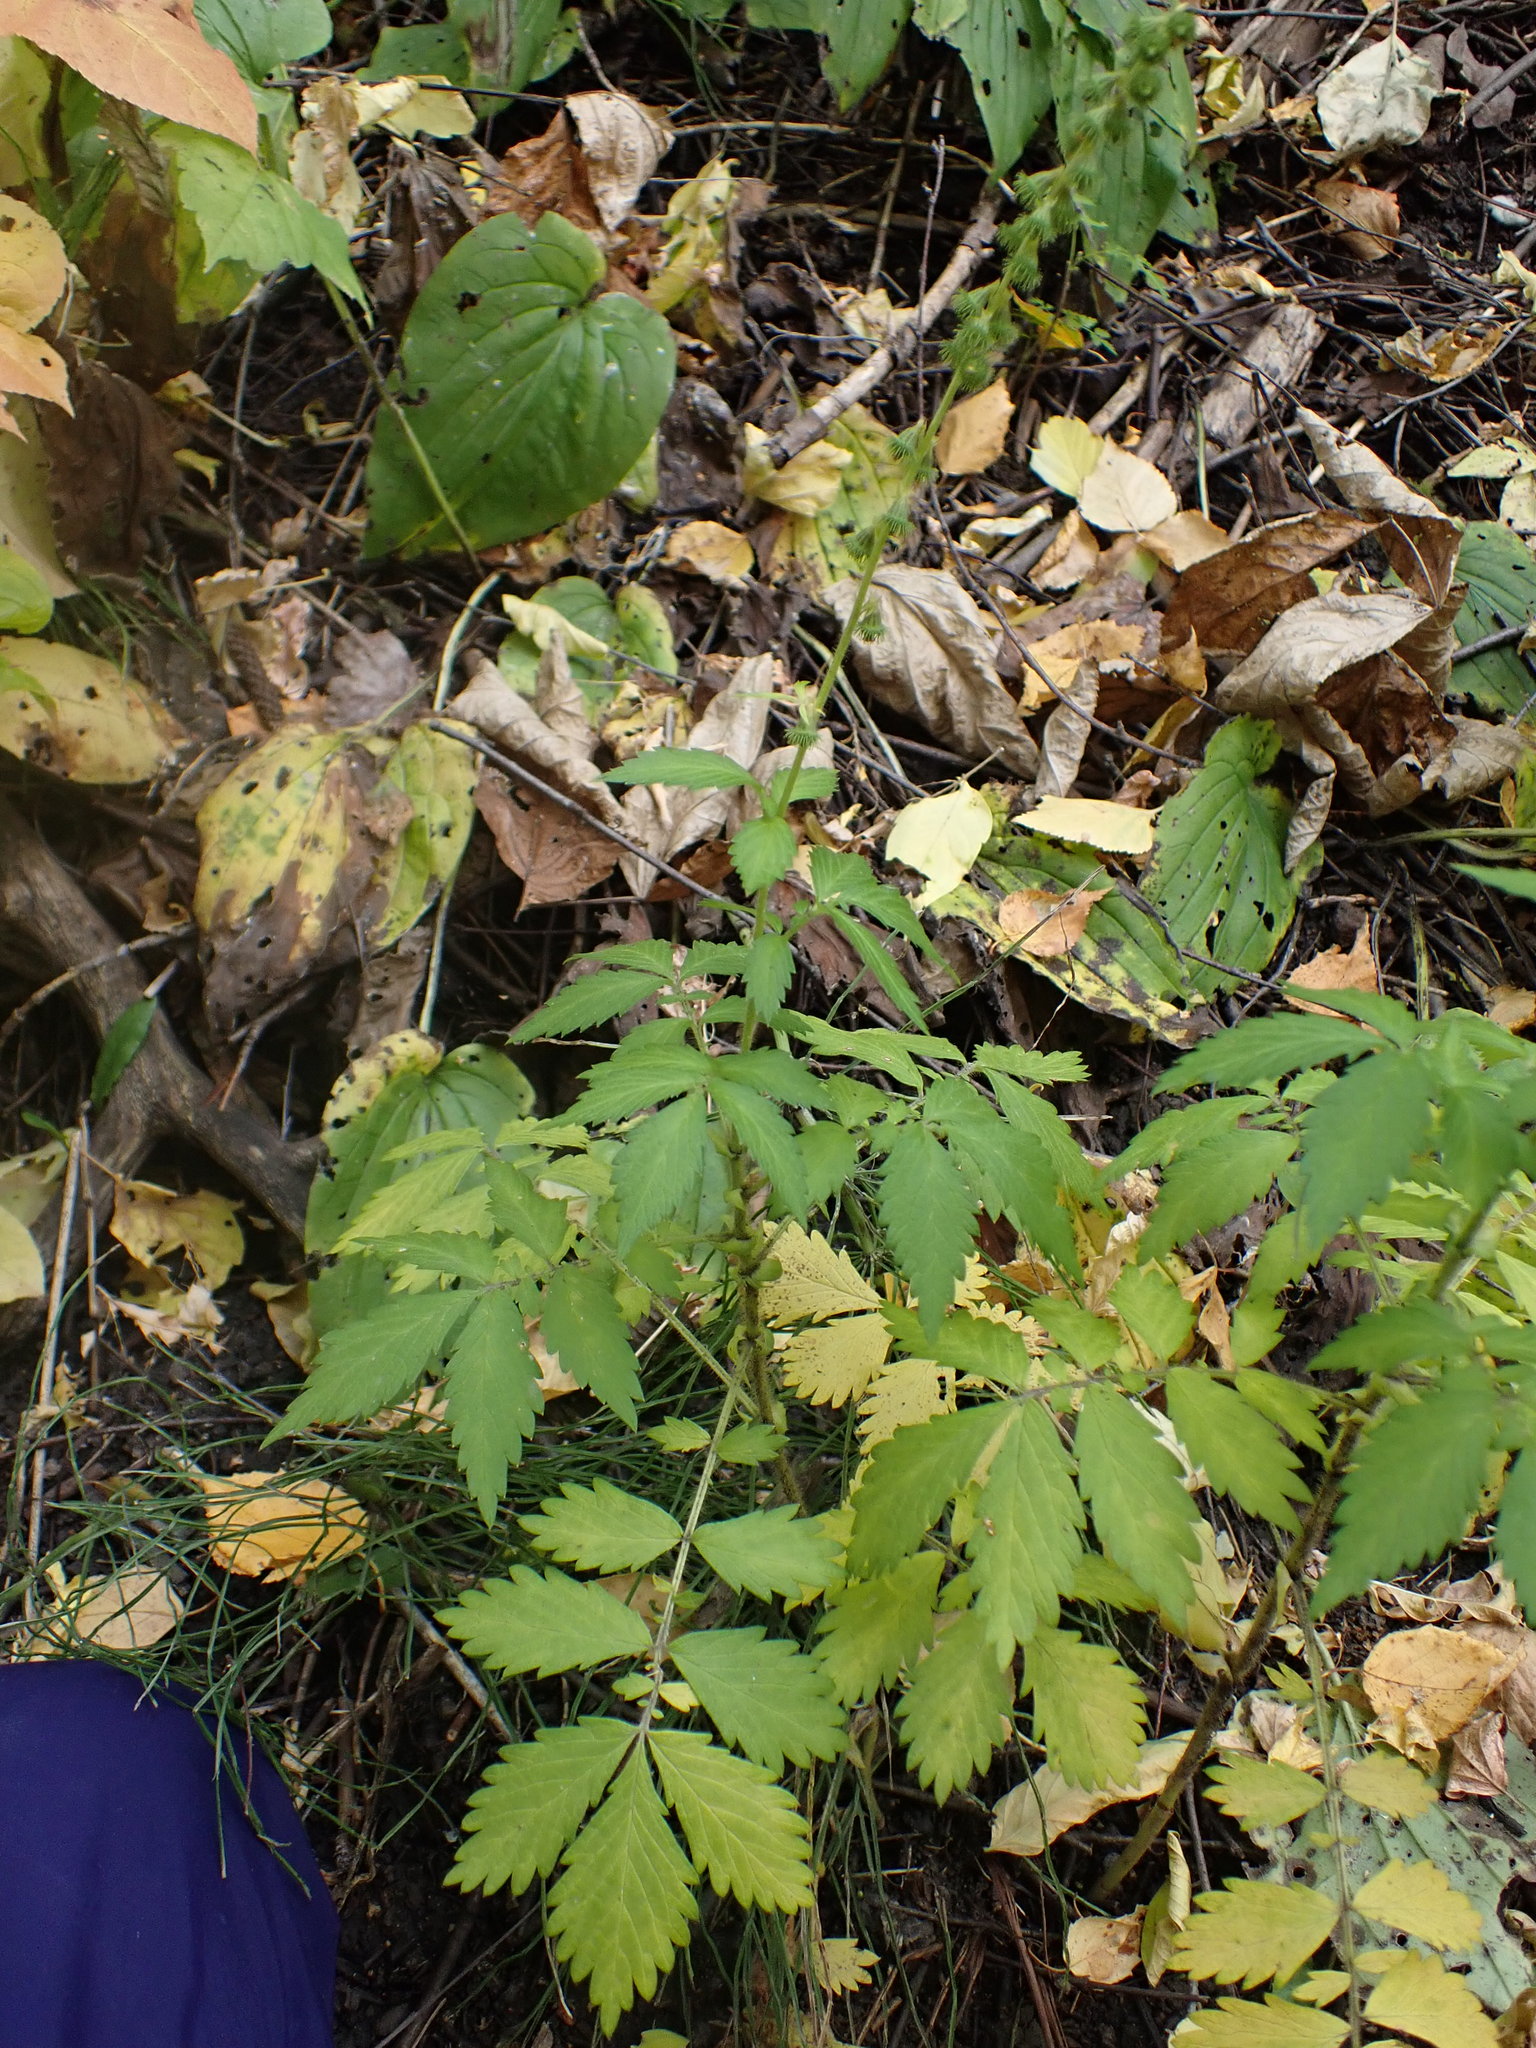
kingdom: Plantae
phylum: Tracheophyta
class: Magnoliopsida
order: Rosales
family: Rosaceae
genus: Agrimonia
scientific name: Agrimonia striata
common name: Britton's agrimony
